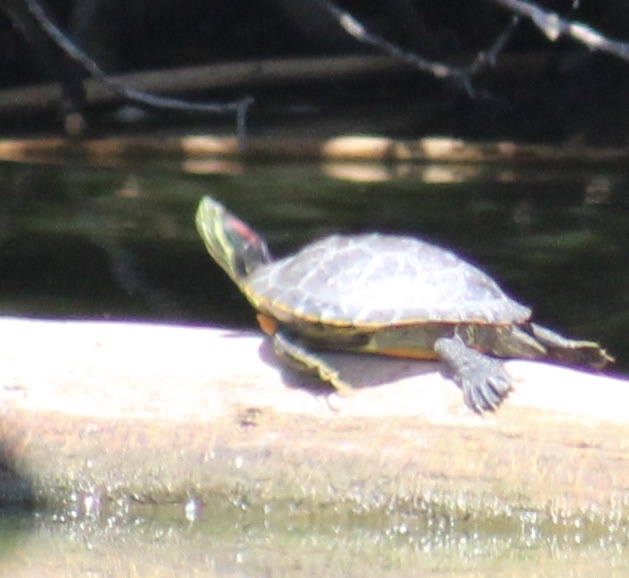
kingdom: Animalia
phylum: Chordata
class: Testudines
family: Emydidae
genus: Trachemys
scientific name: Trachemys scripta
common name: Slider
